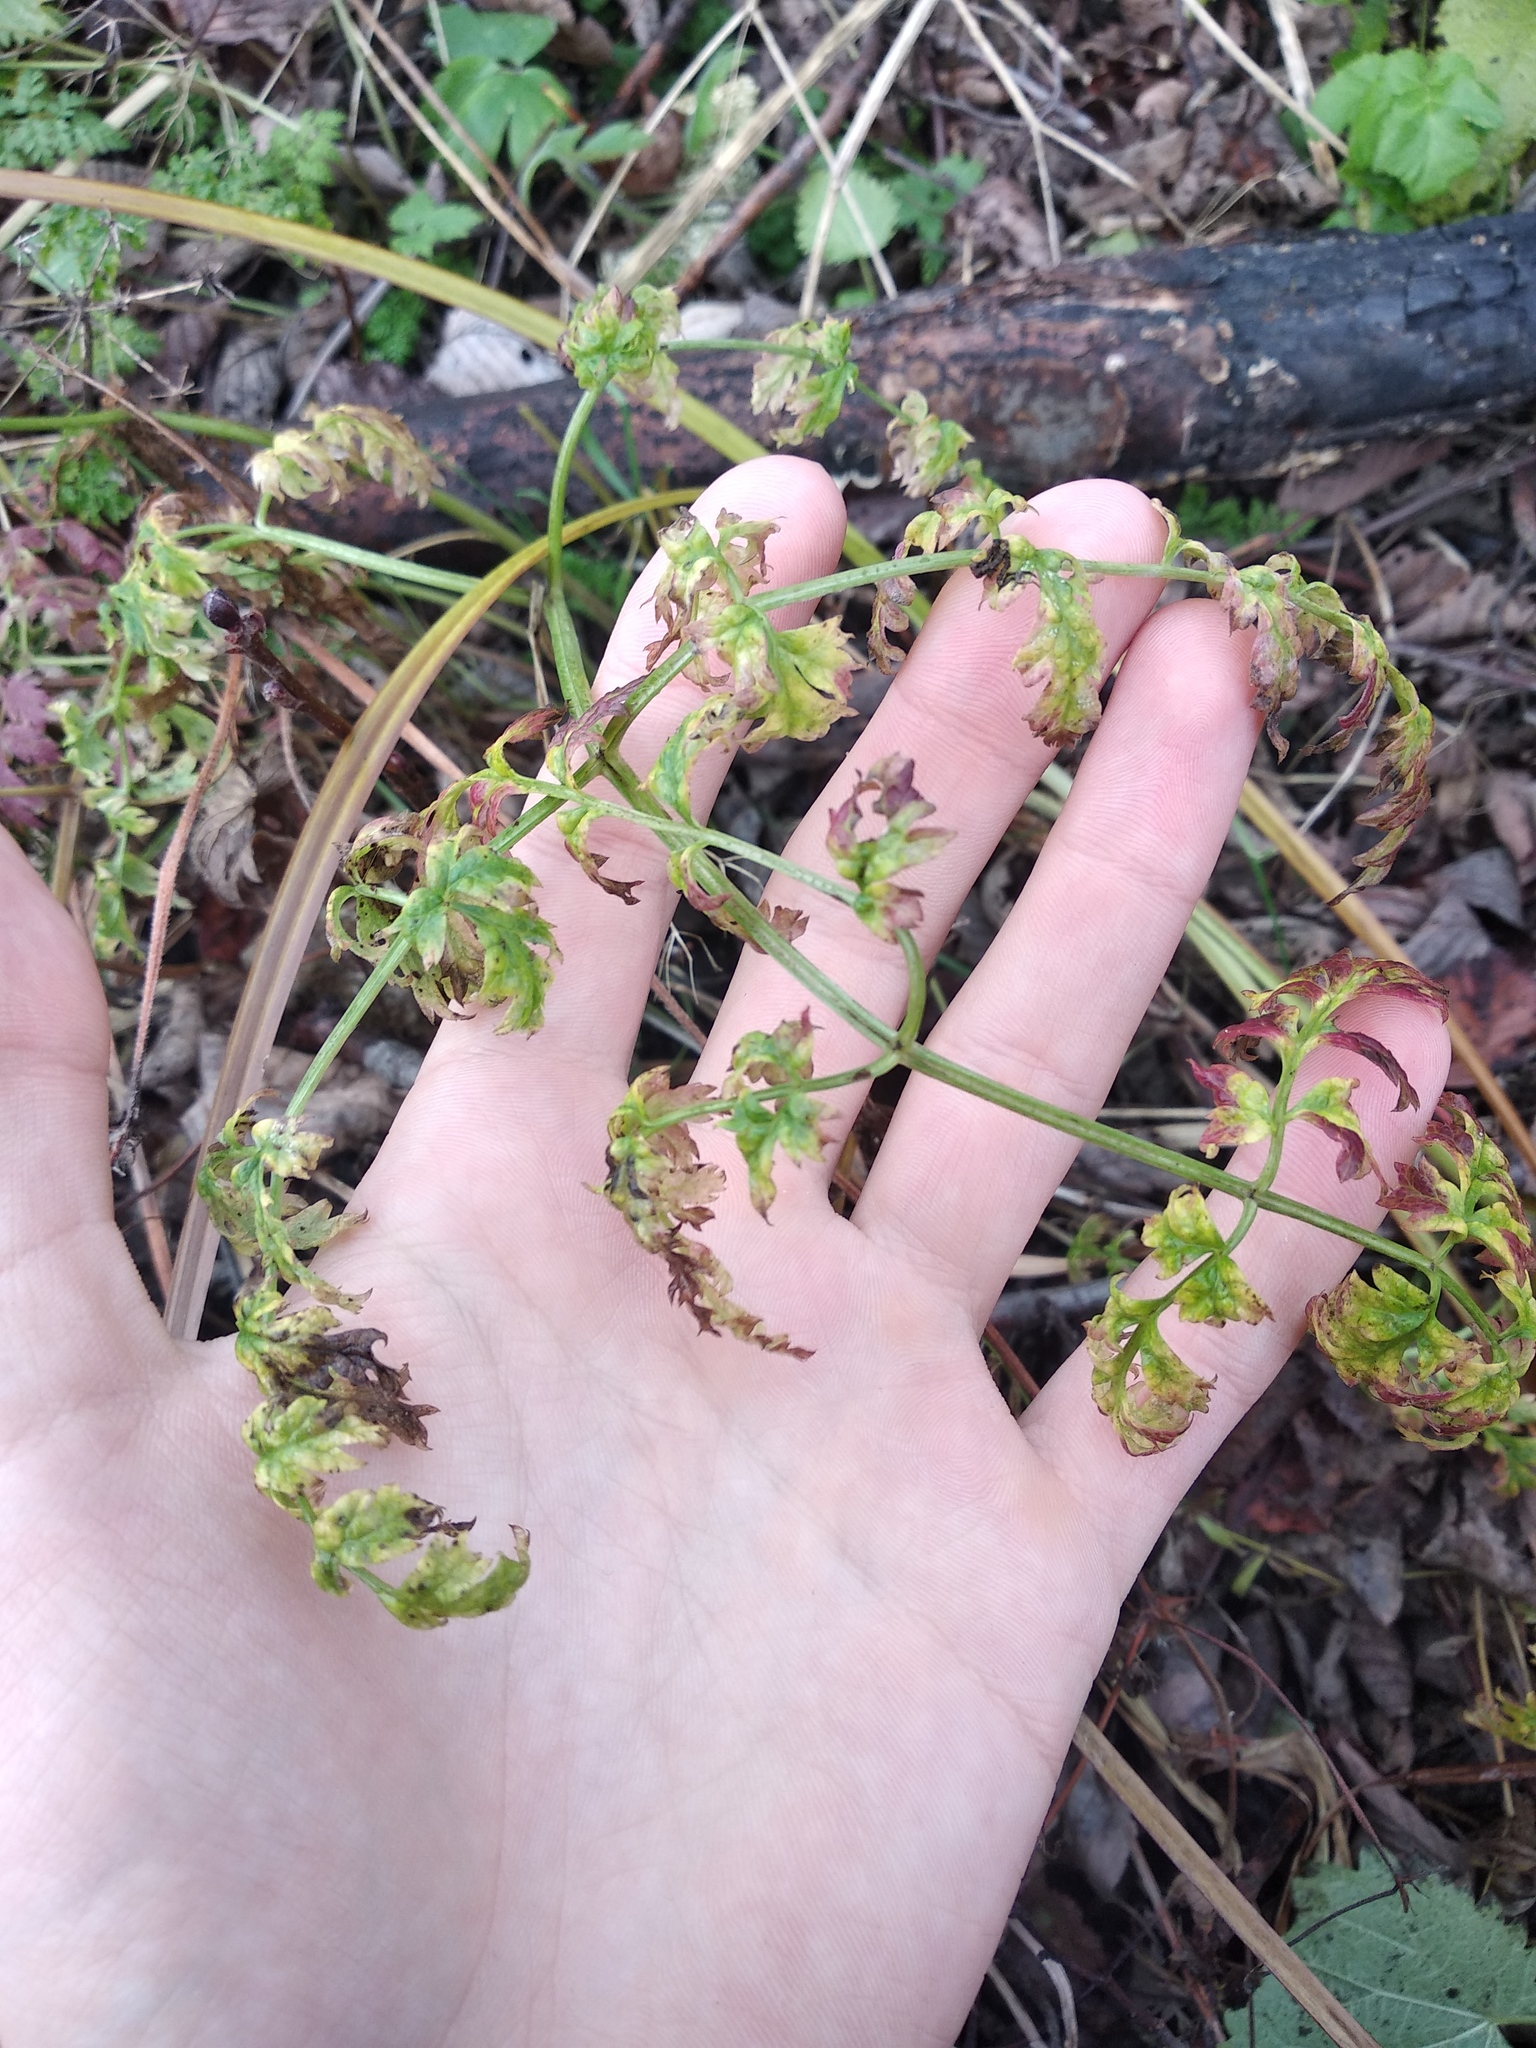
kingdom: Plantae
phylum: Tracheophyta
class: Magnoliopsida
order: Apiales
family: Apiaceae
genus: Anthriscus
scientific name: Anthriscus sylvestris
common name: Cow parsley
